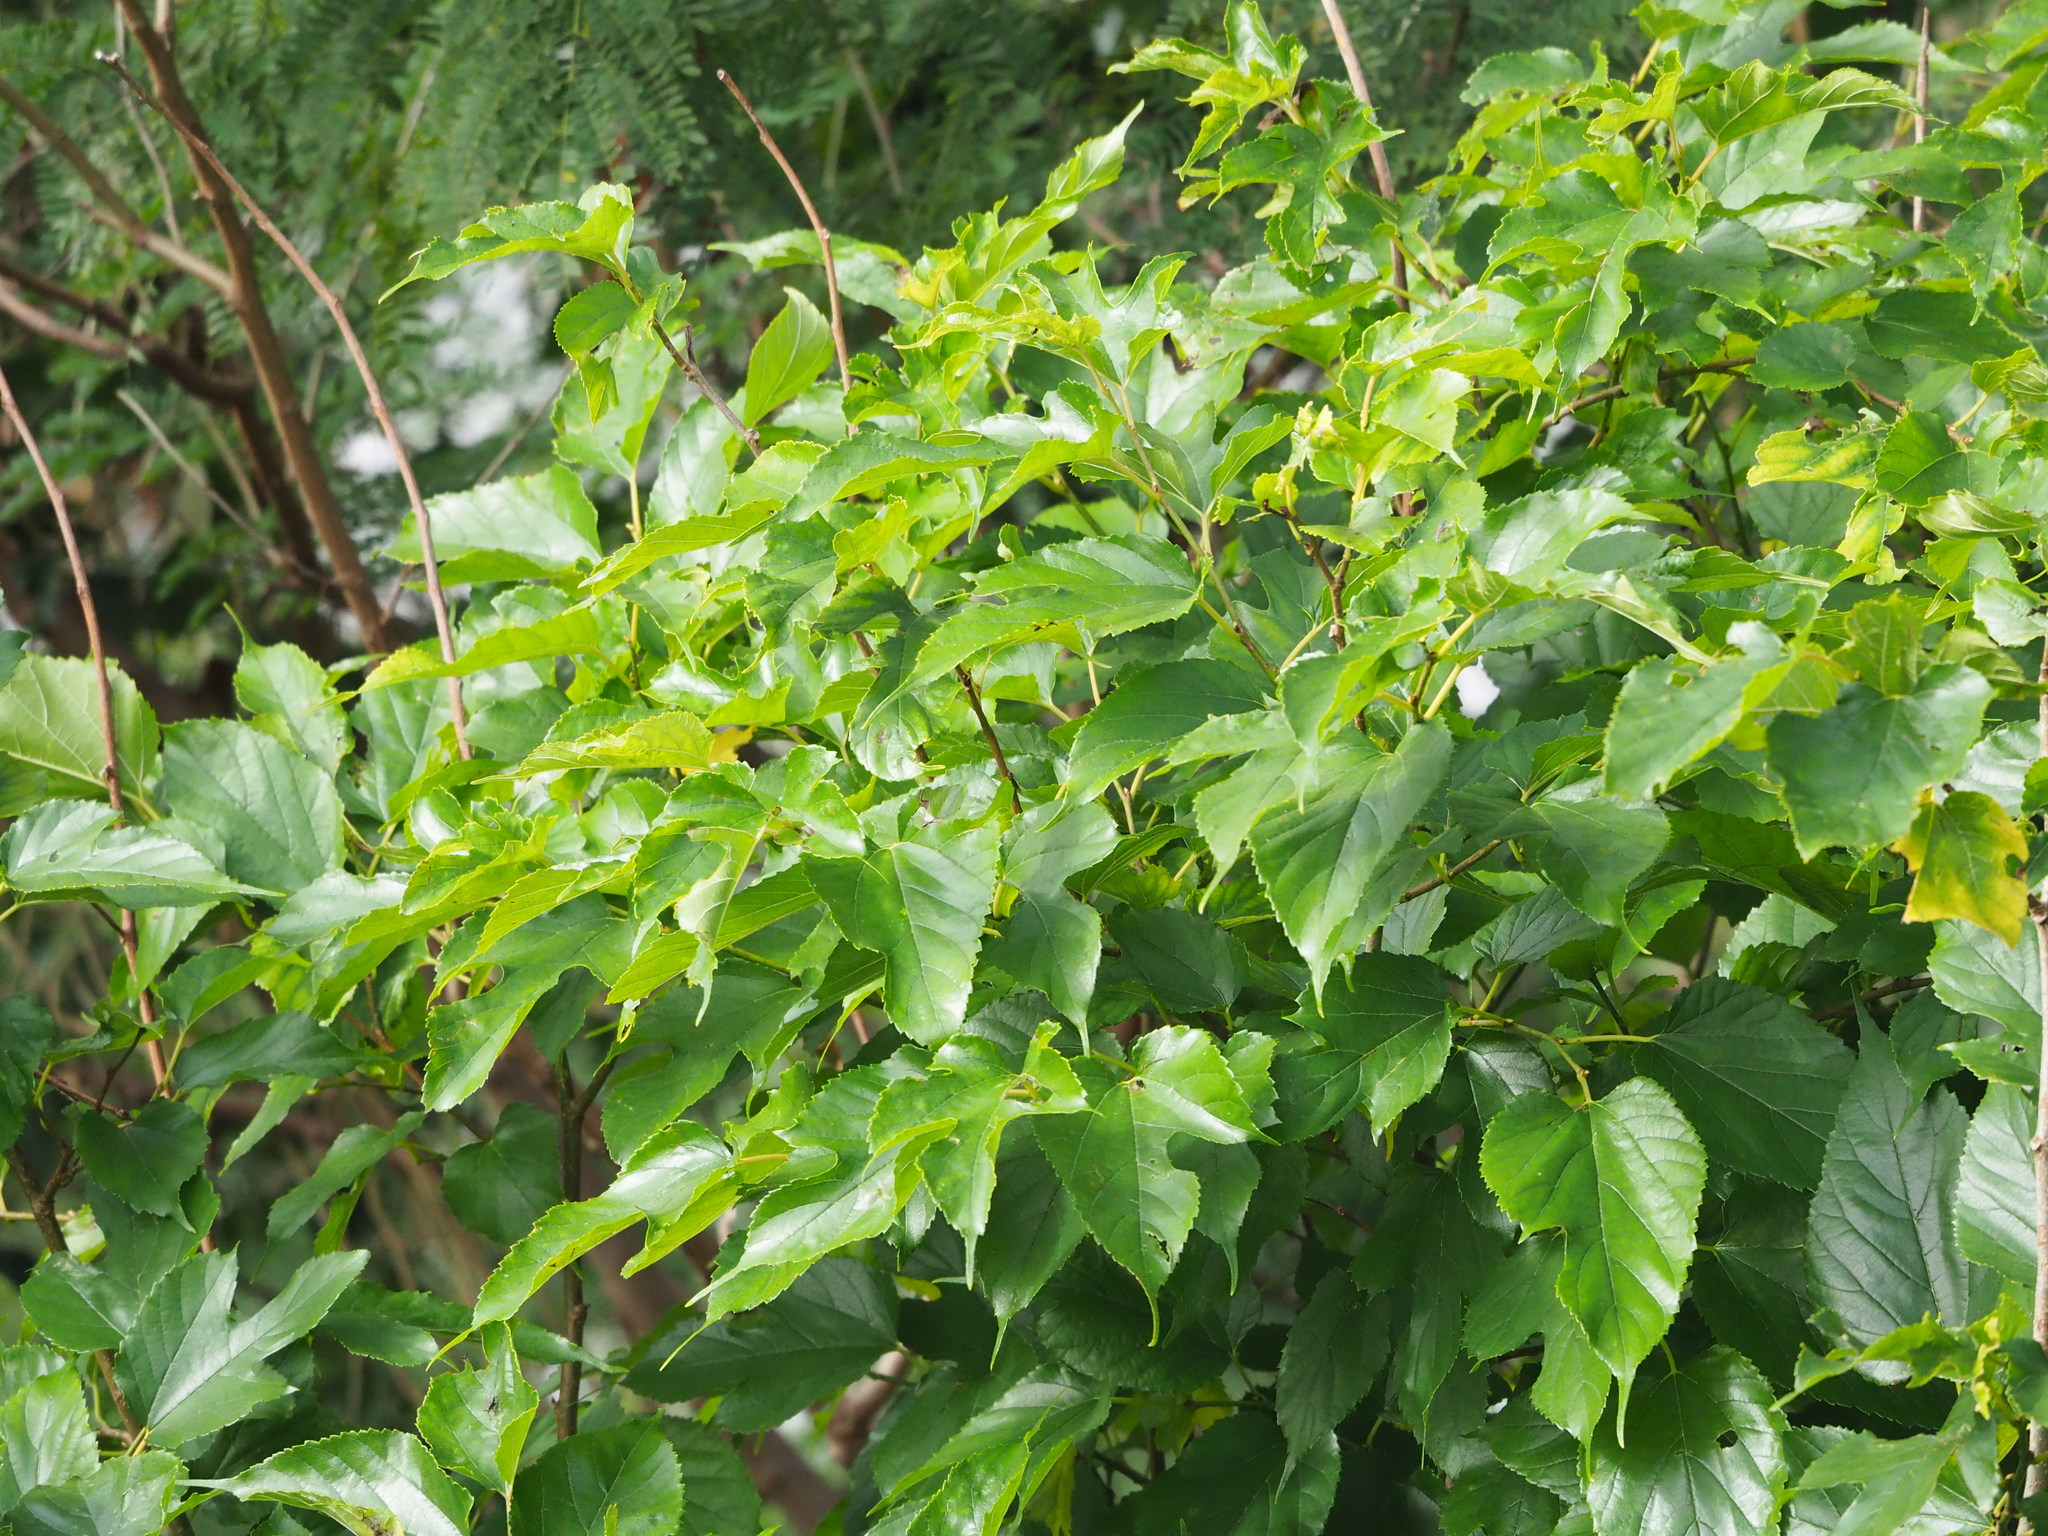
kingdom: Plantae
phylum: Tracheophyta
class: Magnoliopsida
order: Rosales
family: Moraceae
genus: Morus
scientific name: Morus indica
